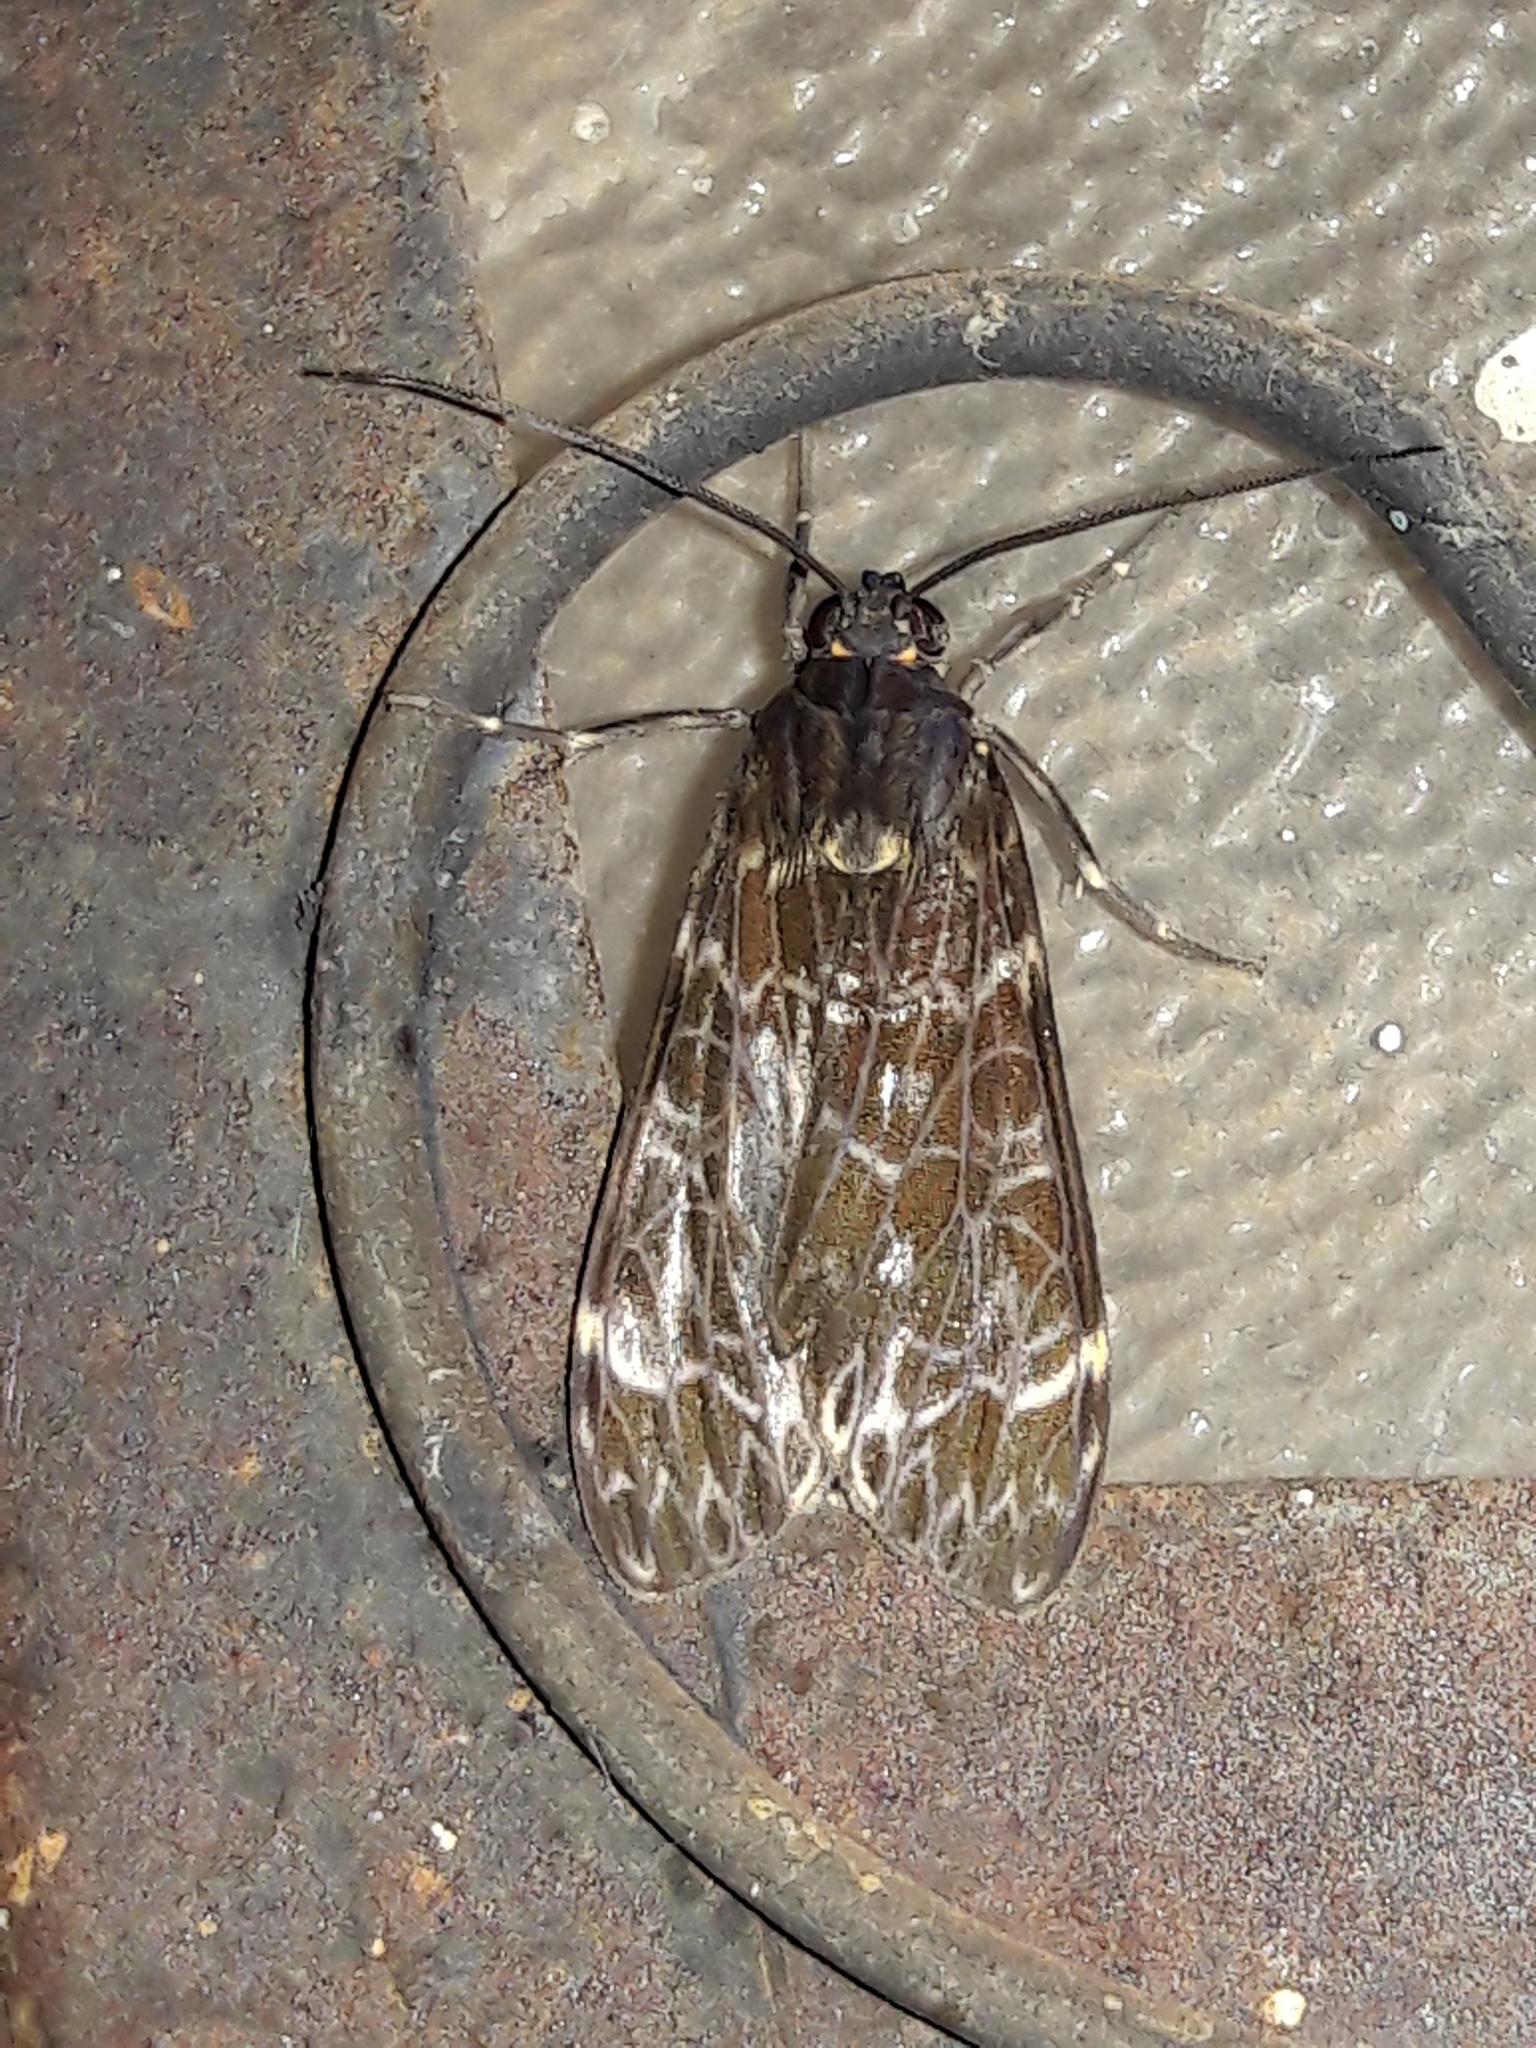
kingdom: Animalia
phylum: Arthropoda
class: Insecta
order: Lepidoptera
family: Erebidae
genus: Eucereon
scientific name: Eucereon sylvius
